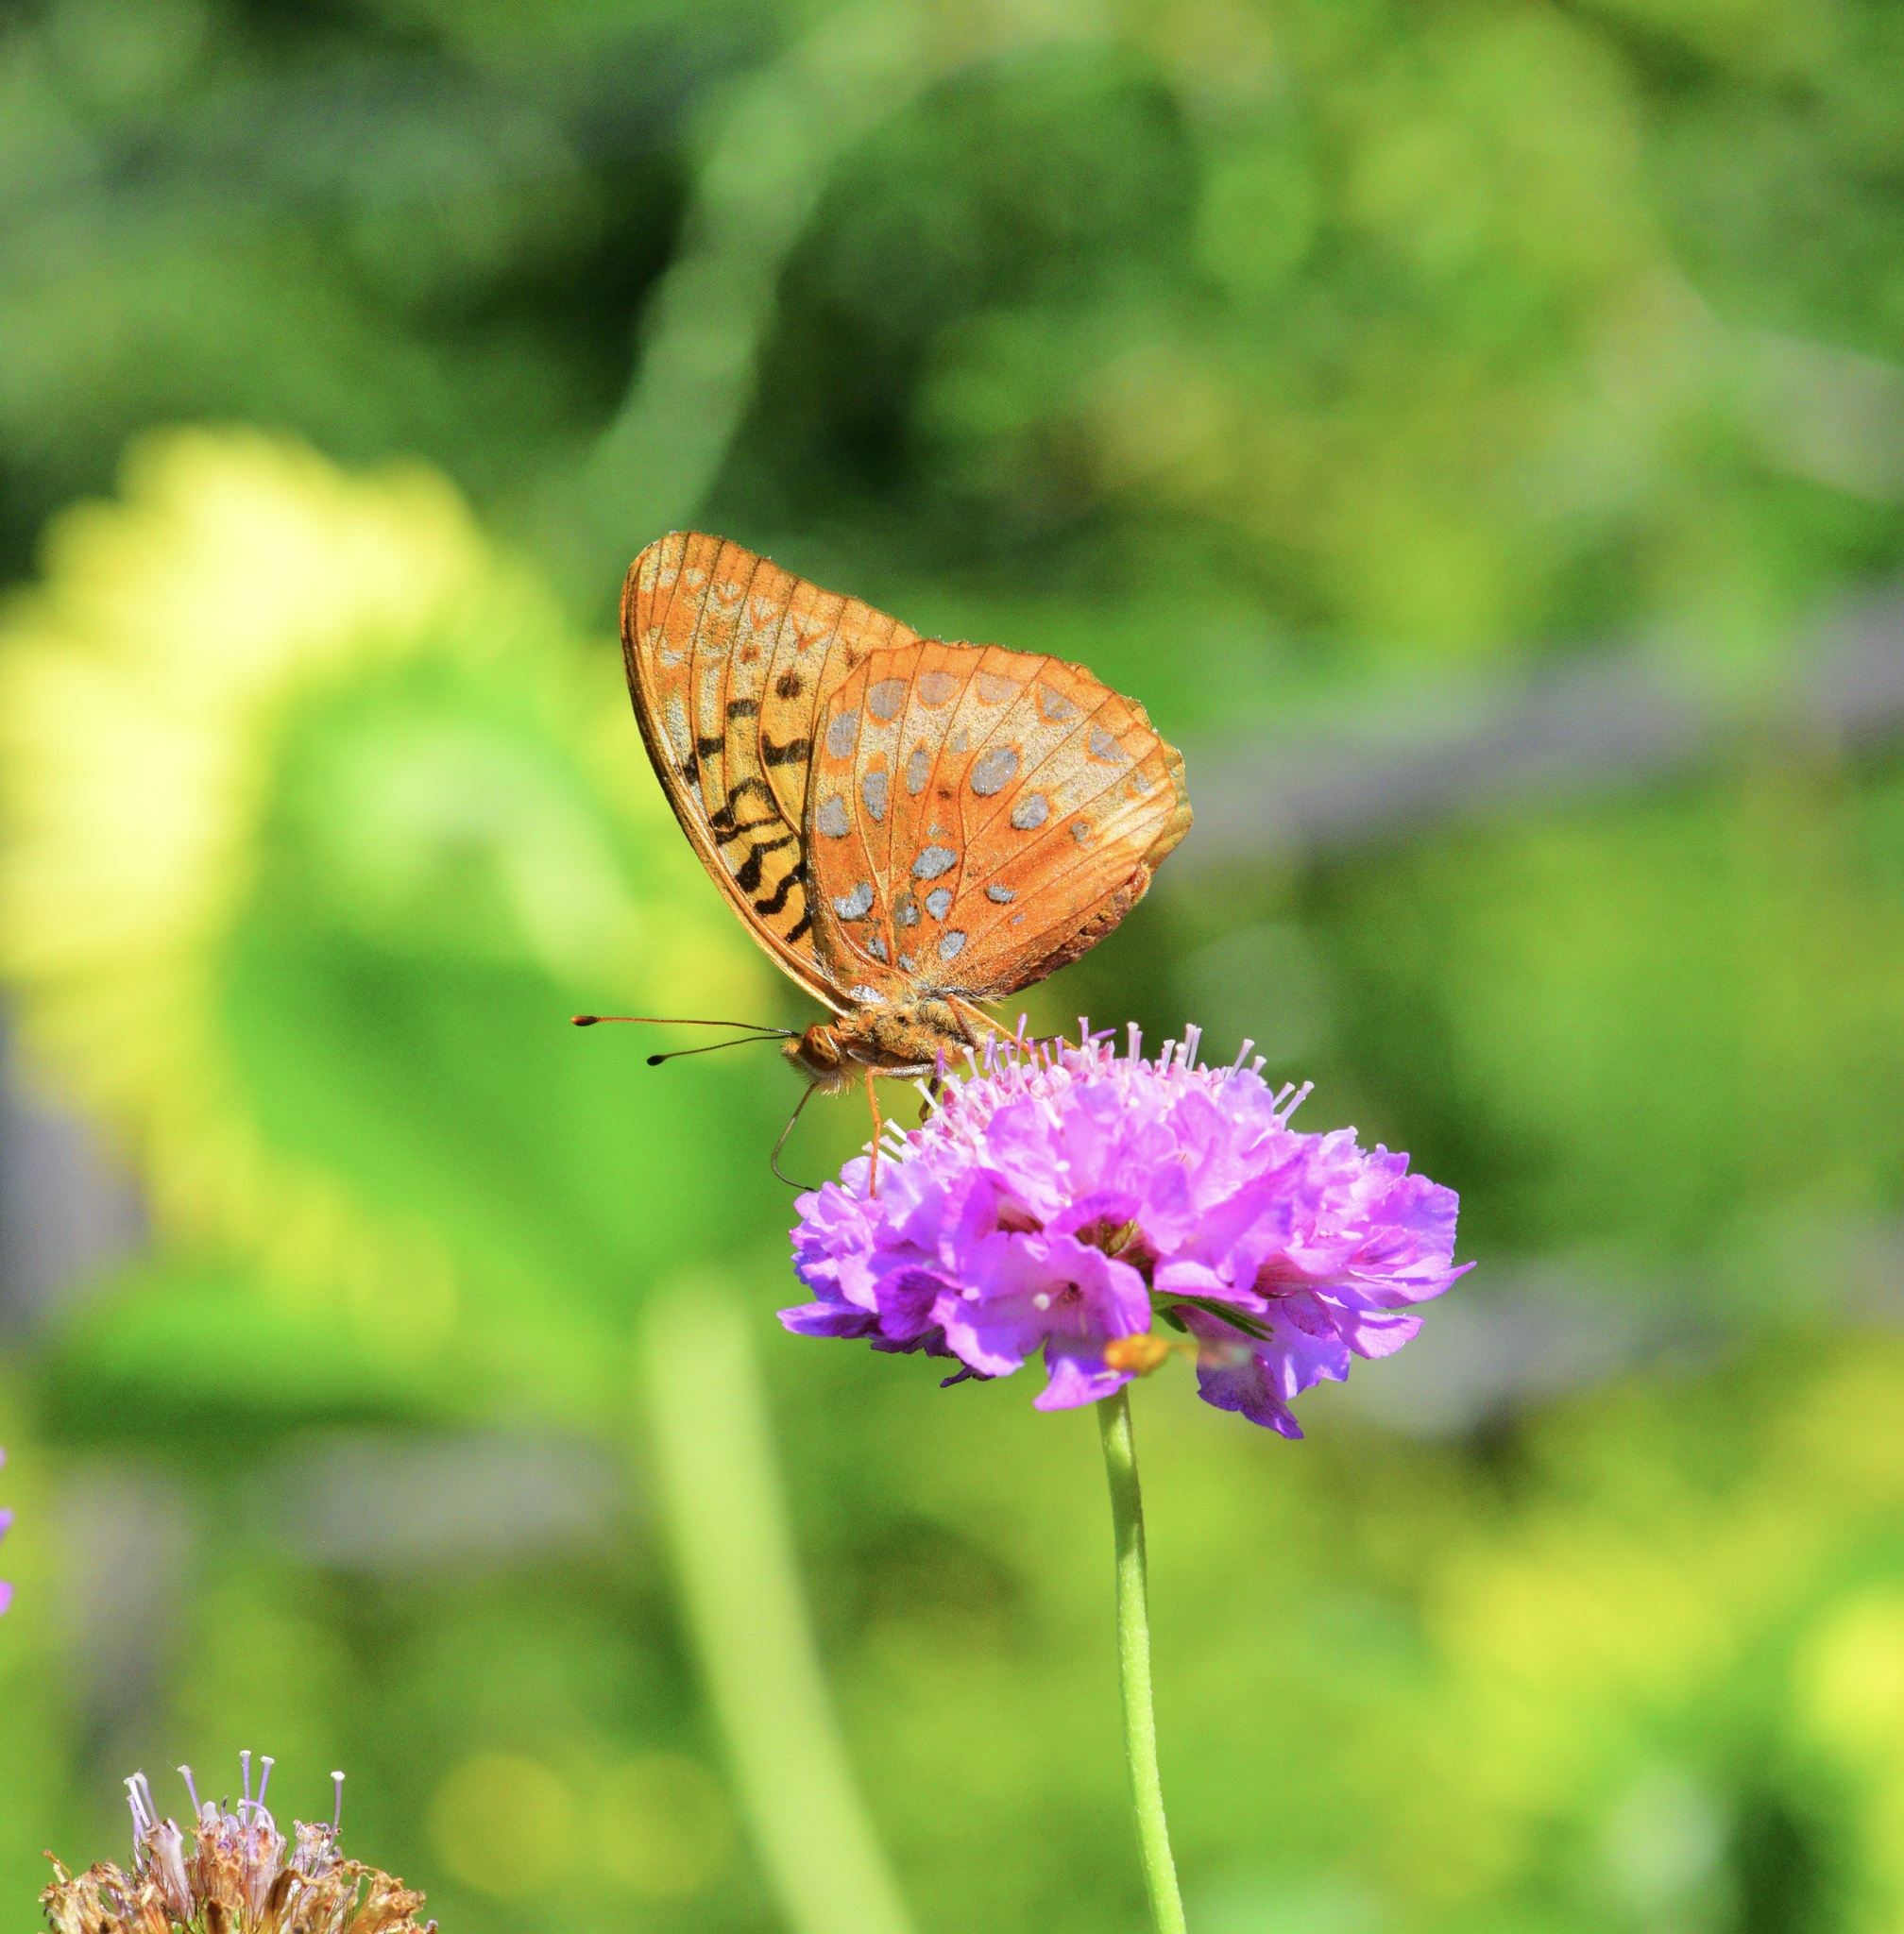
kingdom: Animalia
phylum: Arthropoda
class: Insecta
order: Lepidoptera
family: Nymphalidae
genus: Speyeria
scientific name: Speyeria cybele
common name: Great spangled fritillary
